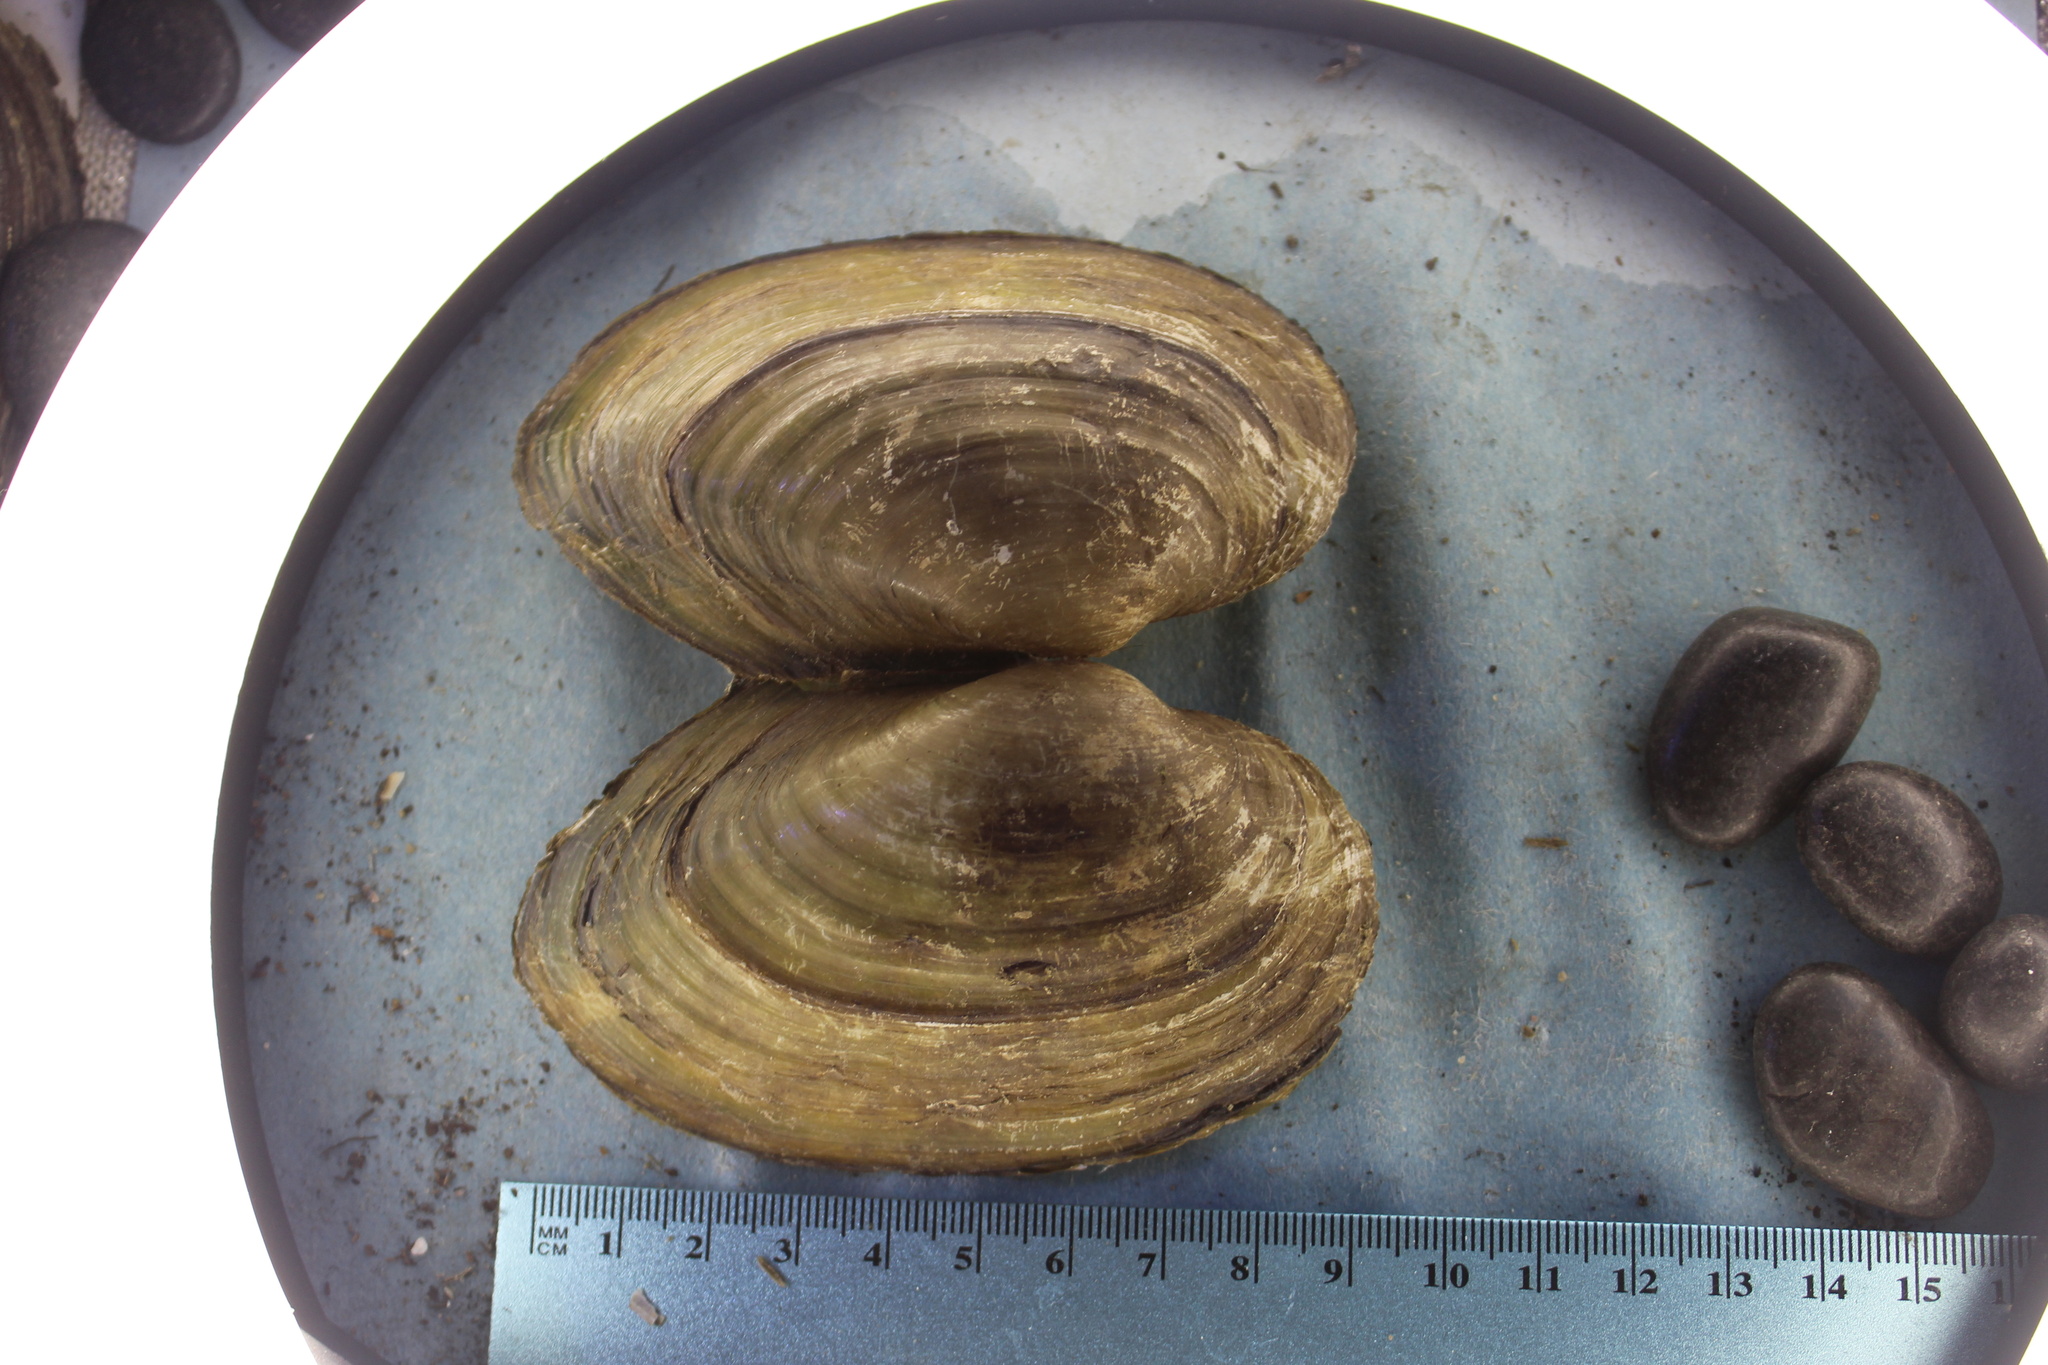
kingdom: Animalia
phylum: Mollusca
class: Bivalvia
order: Unionida
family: Unionidae
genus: Pyganodon
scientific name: Pyganodon grandis
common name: Giant floater
